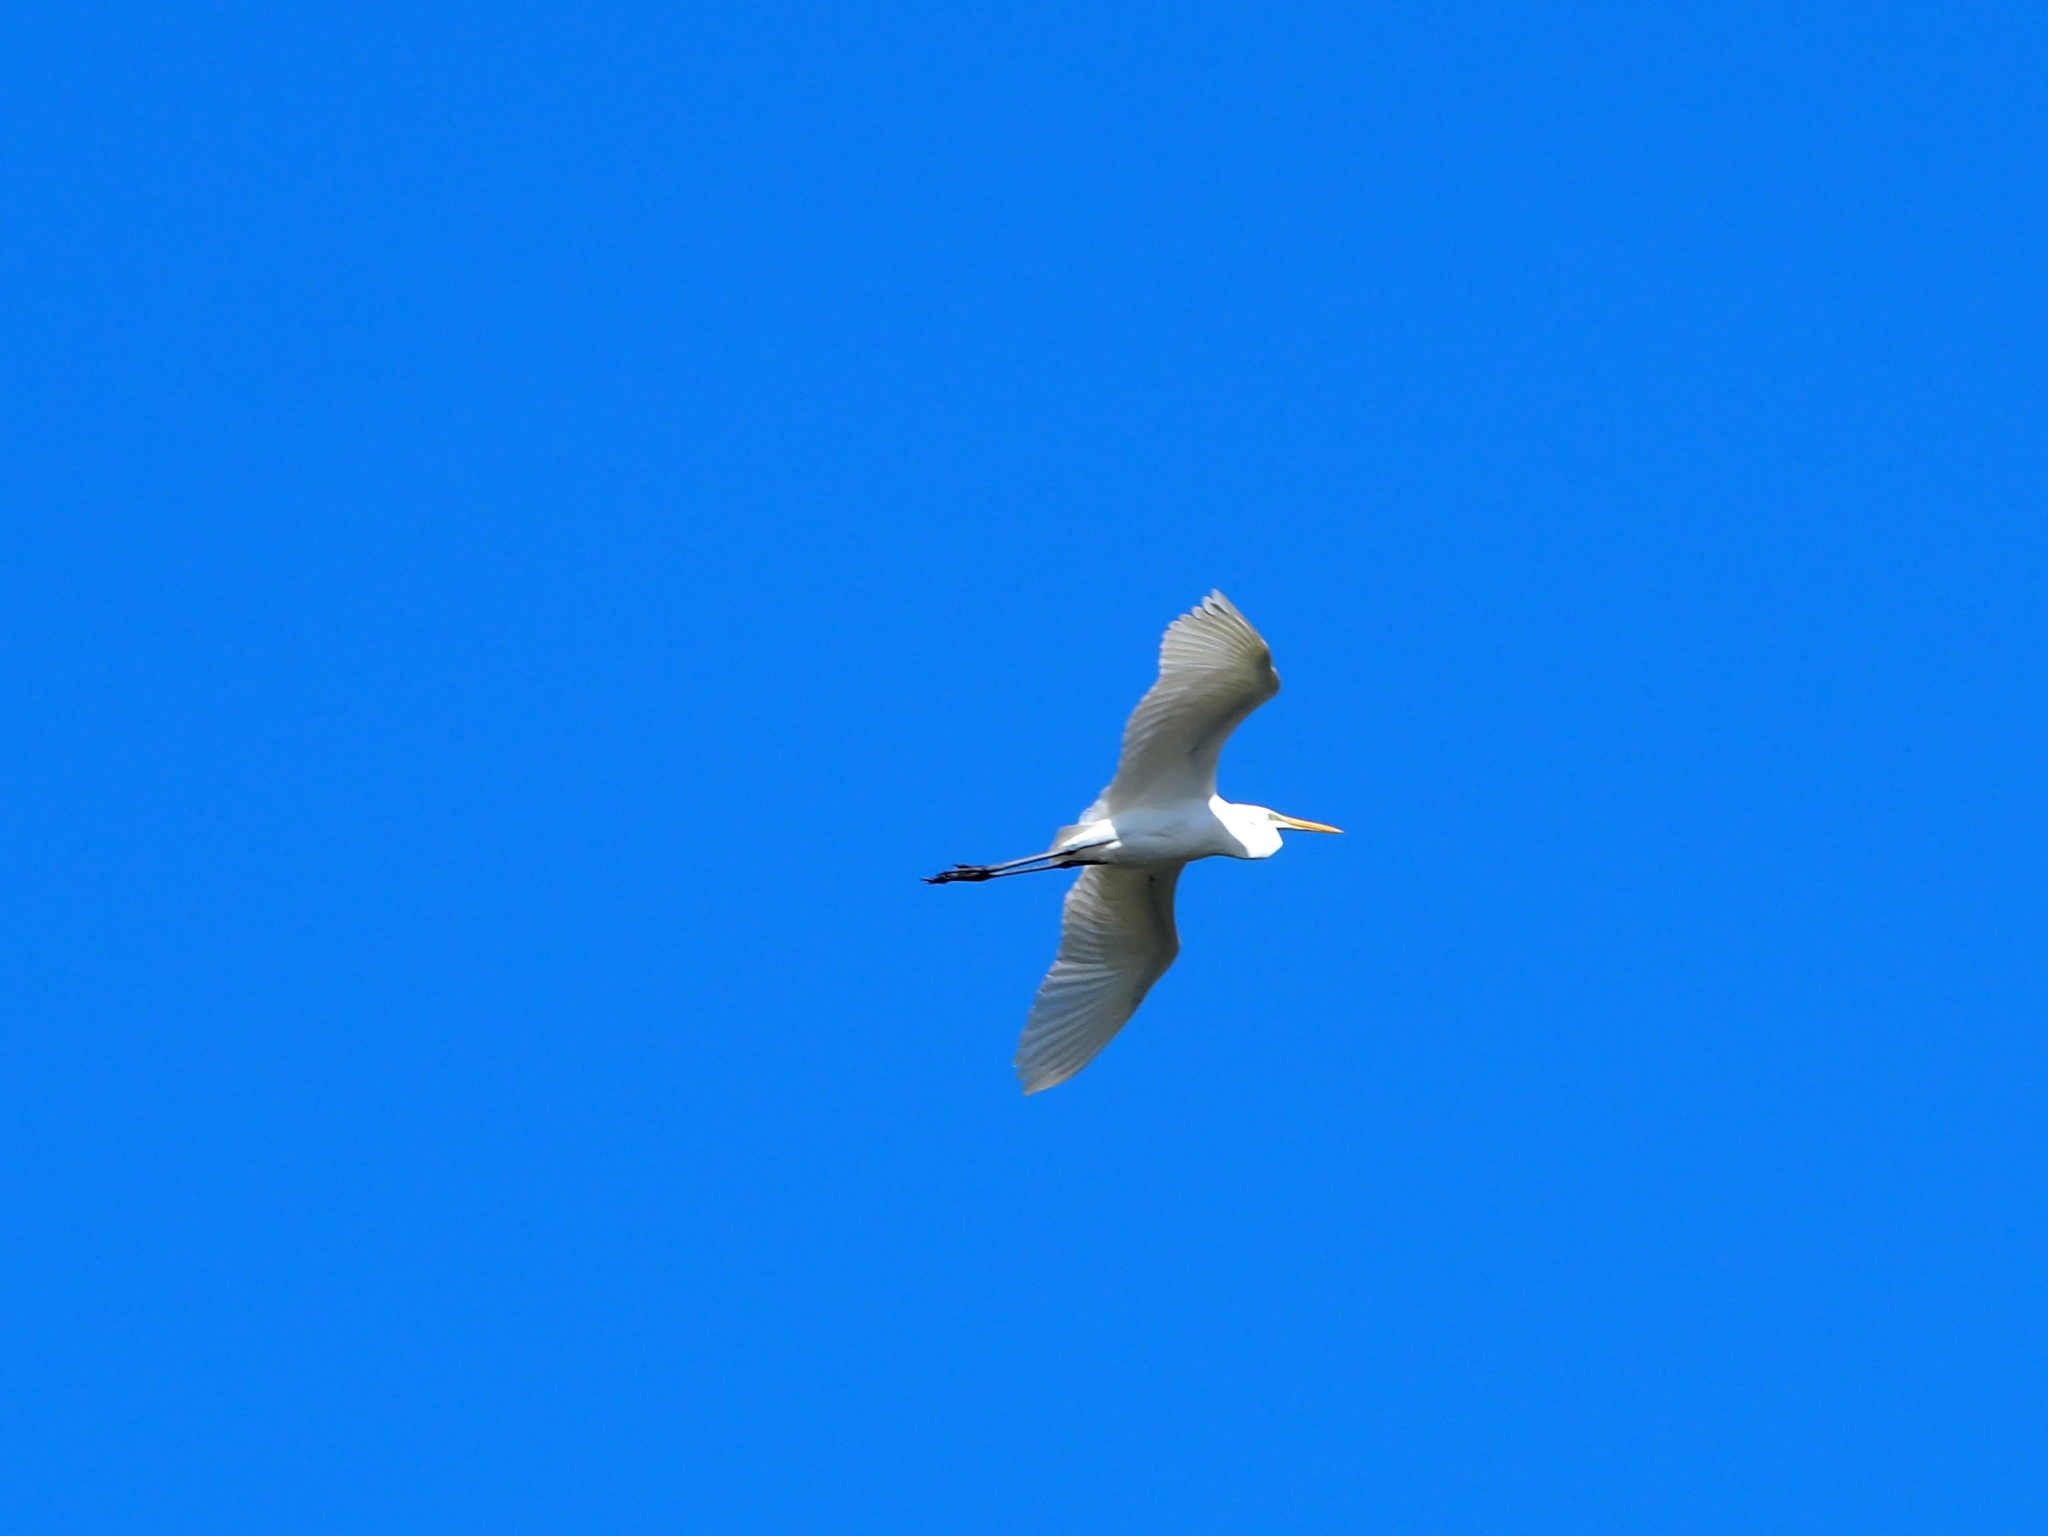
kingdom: Animalia
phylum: Chordata
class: Aves
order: Pelecaniformes
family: Ardeidae
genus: Ardea
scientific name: Ardea alba
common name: Great egret
